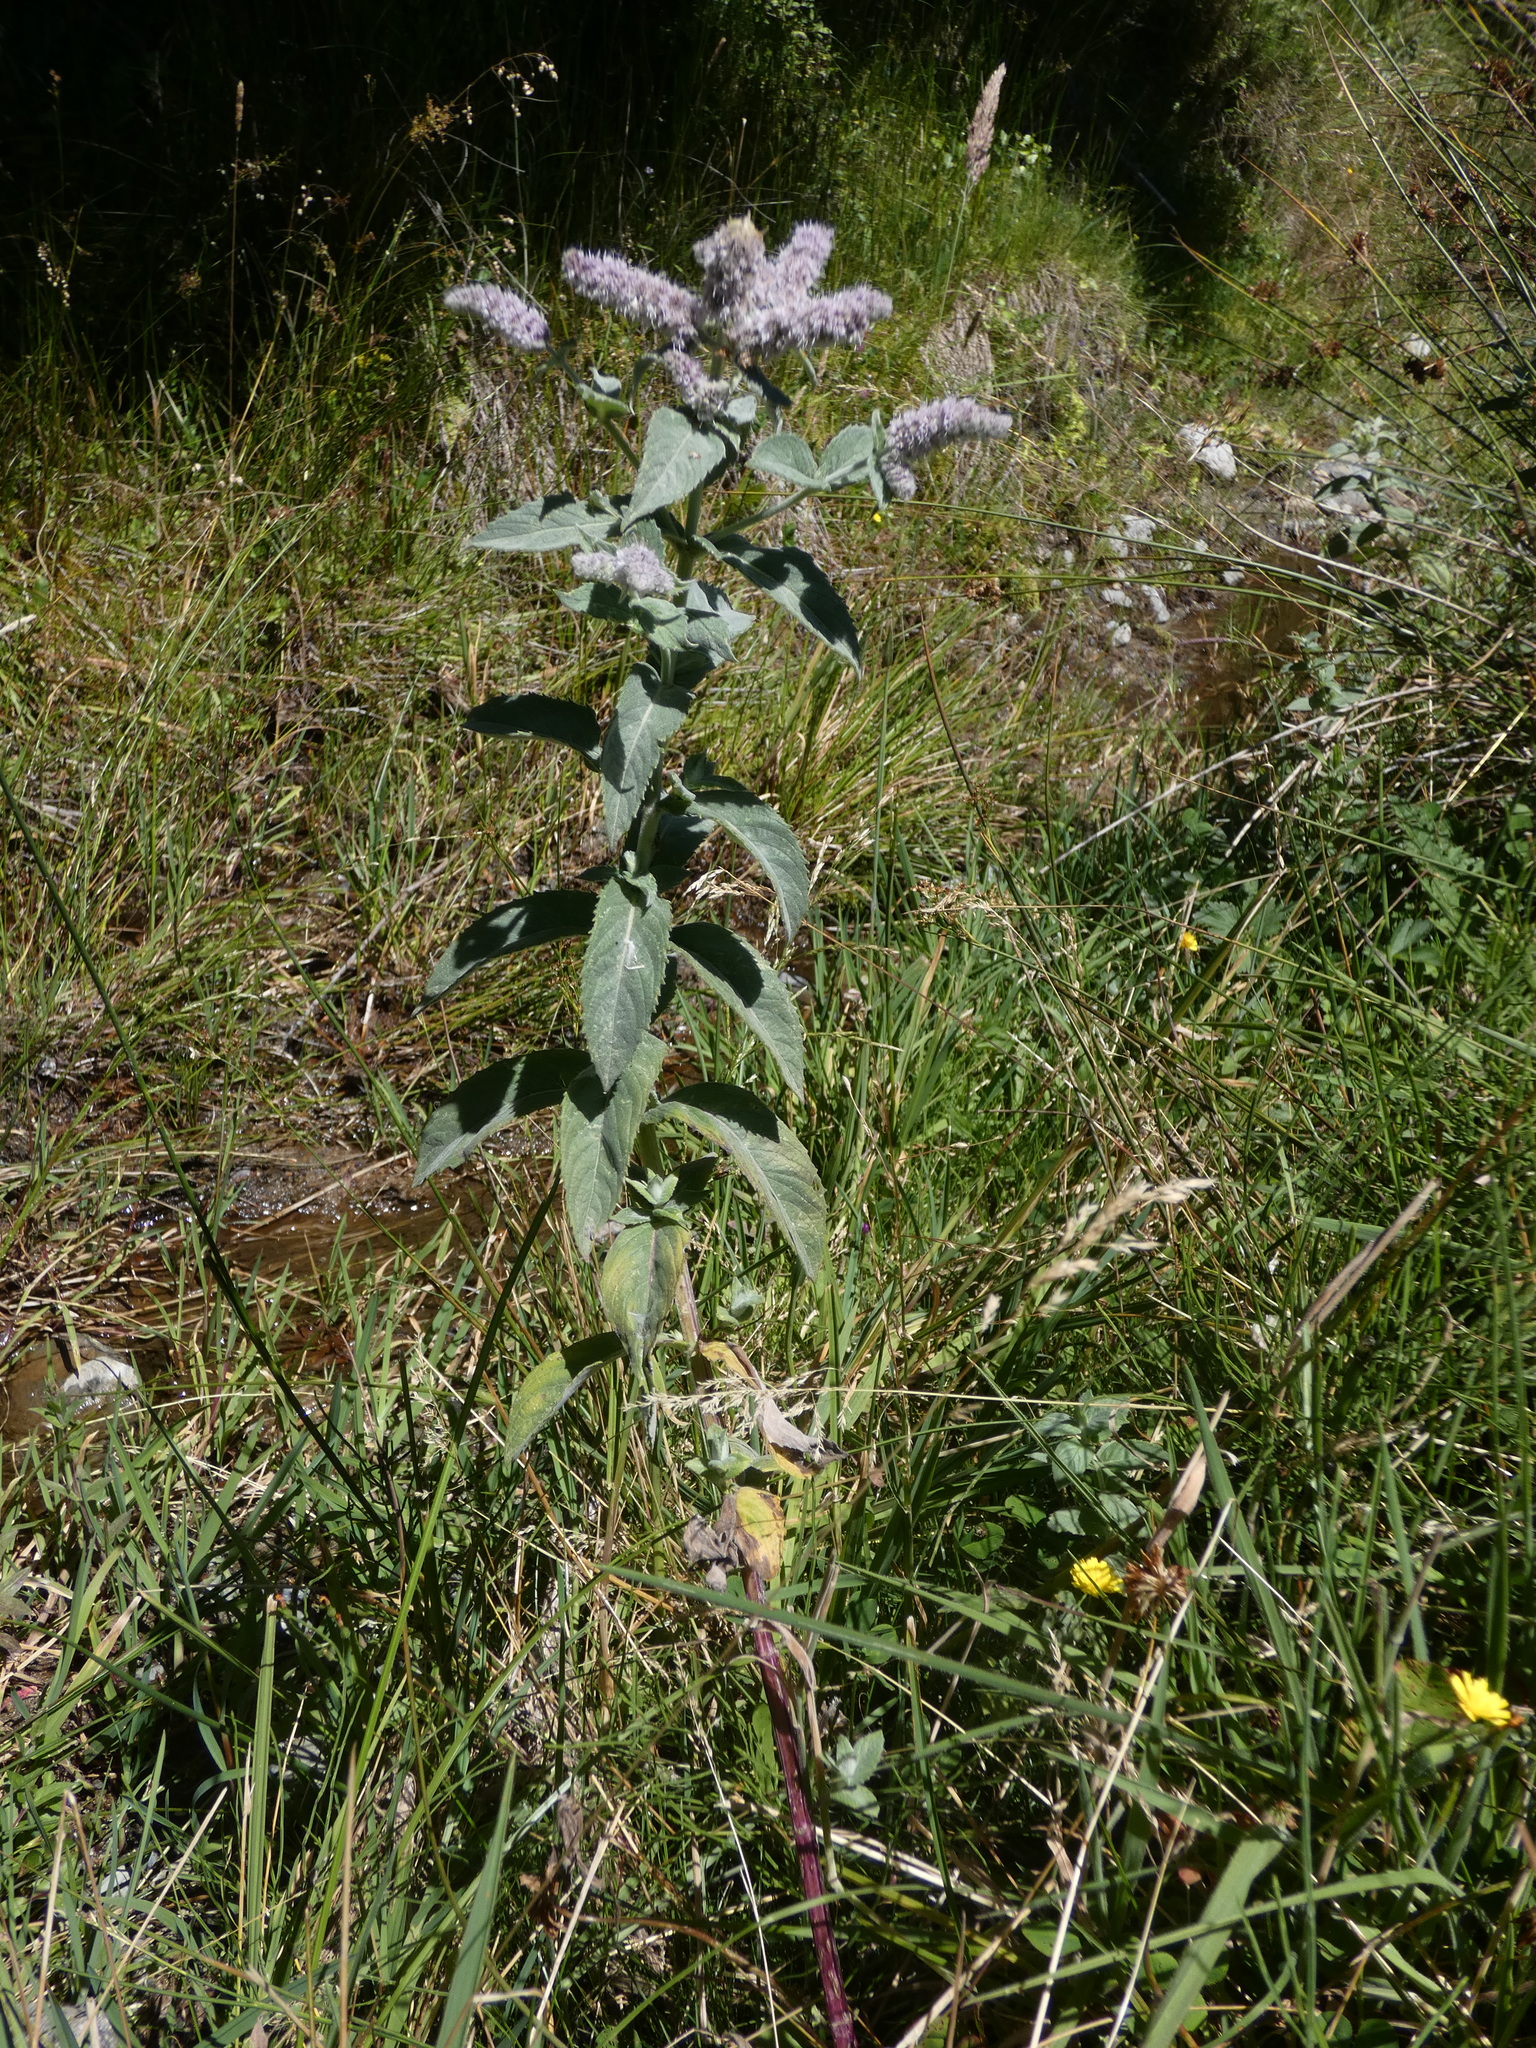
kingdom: Plantae
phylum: Tracheophyta
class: Magnoliopsida
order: Lamiales
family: Lamiaceae
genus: Mentha
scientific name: Mentha longifolia
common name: Horse mint
